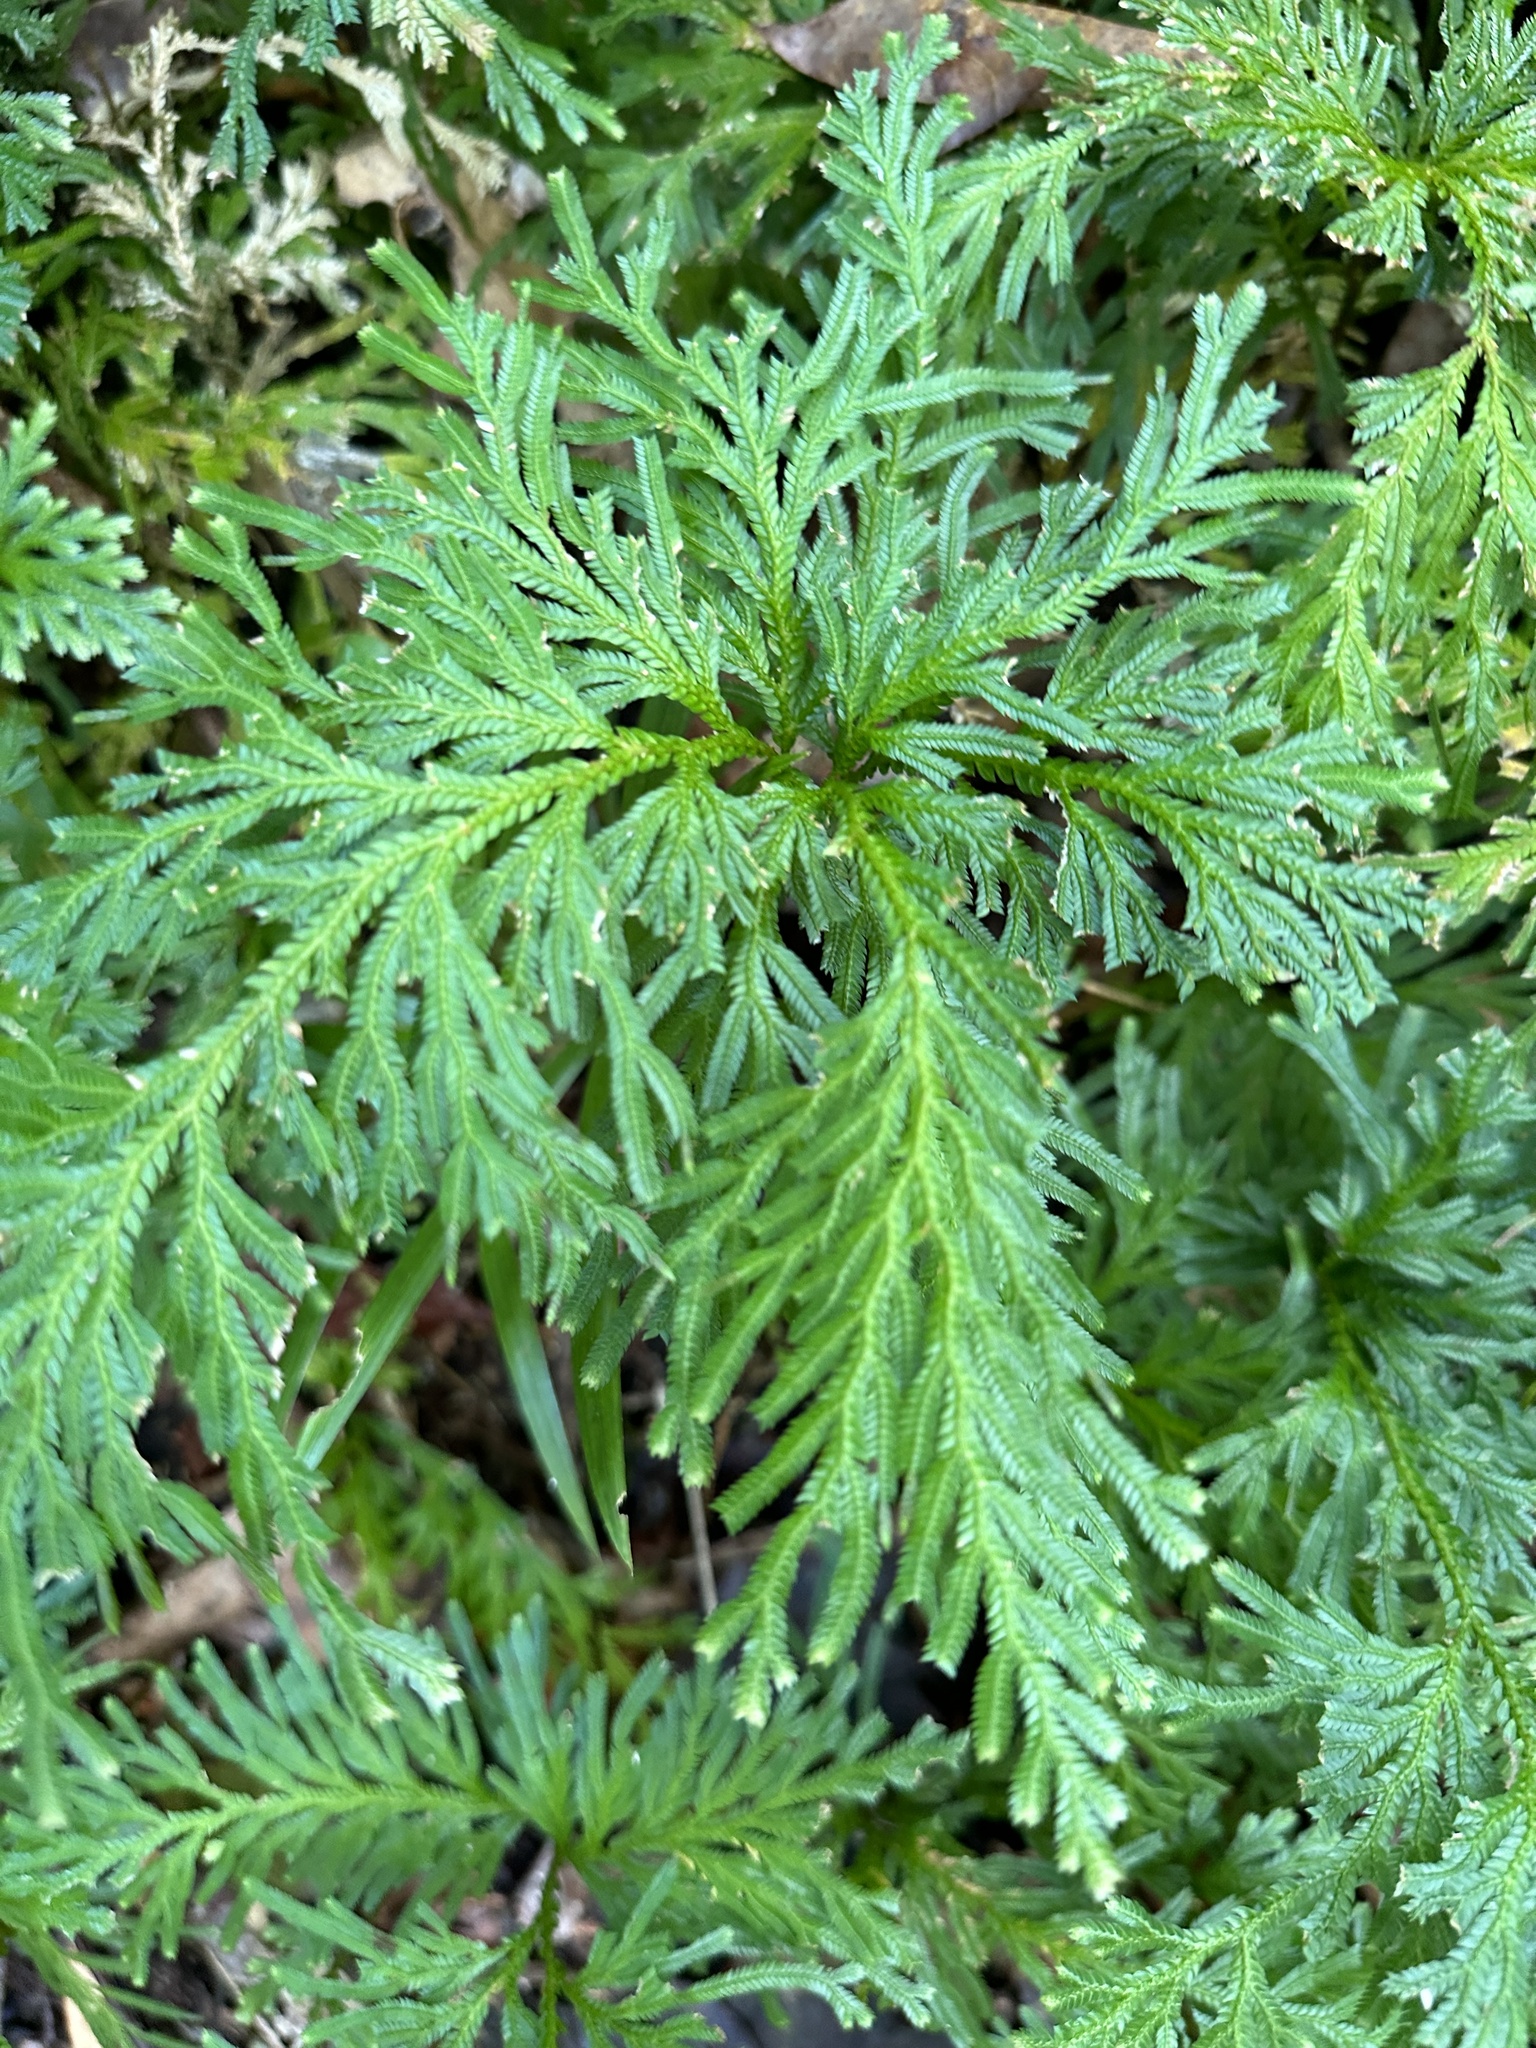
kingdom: Plantae
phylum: Tracheophyta
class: Lycopodiopsida
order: Selaginellales
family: Selaginellaceae
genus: Selaginella
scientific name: Selaginella longipinna
